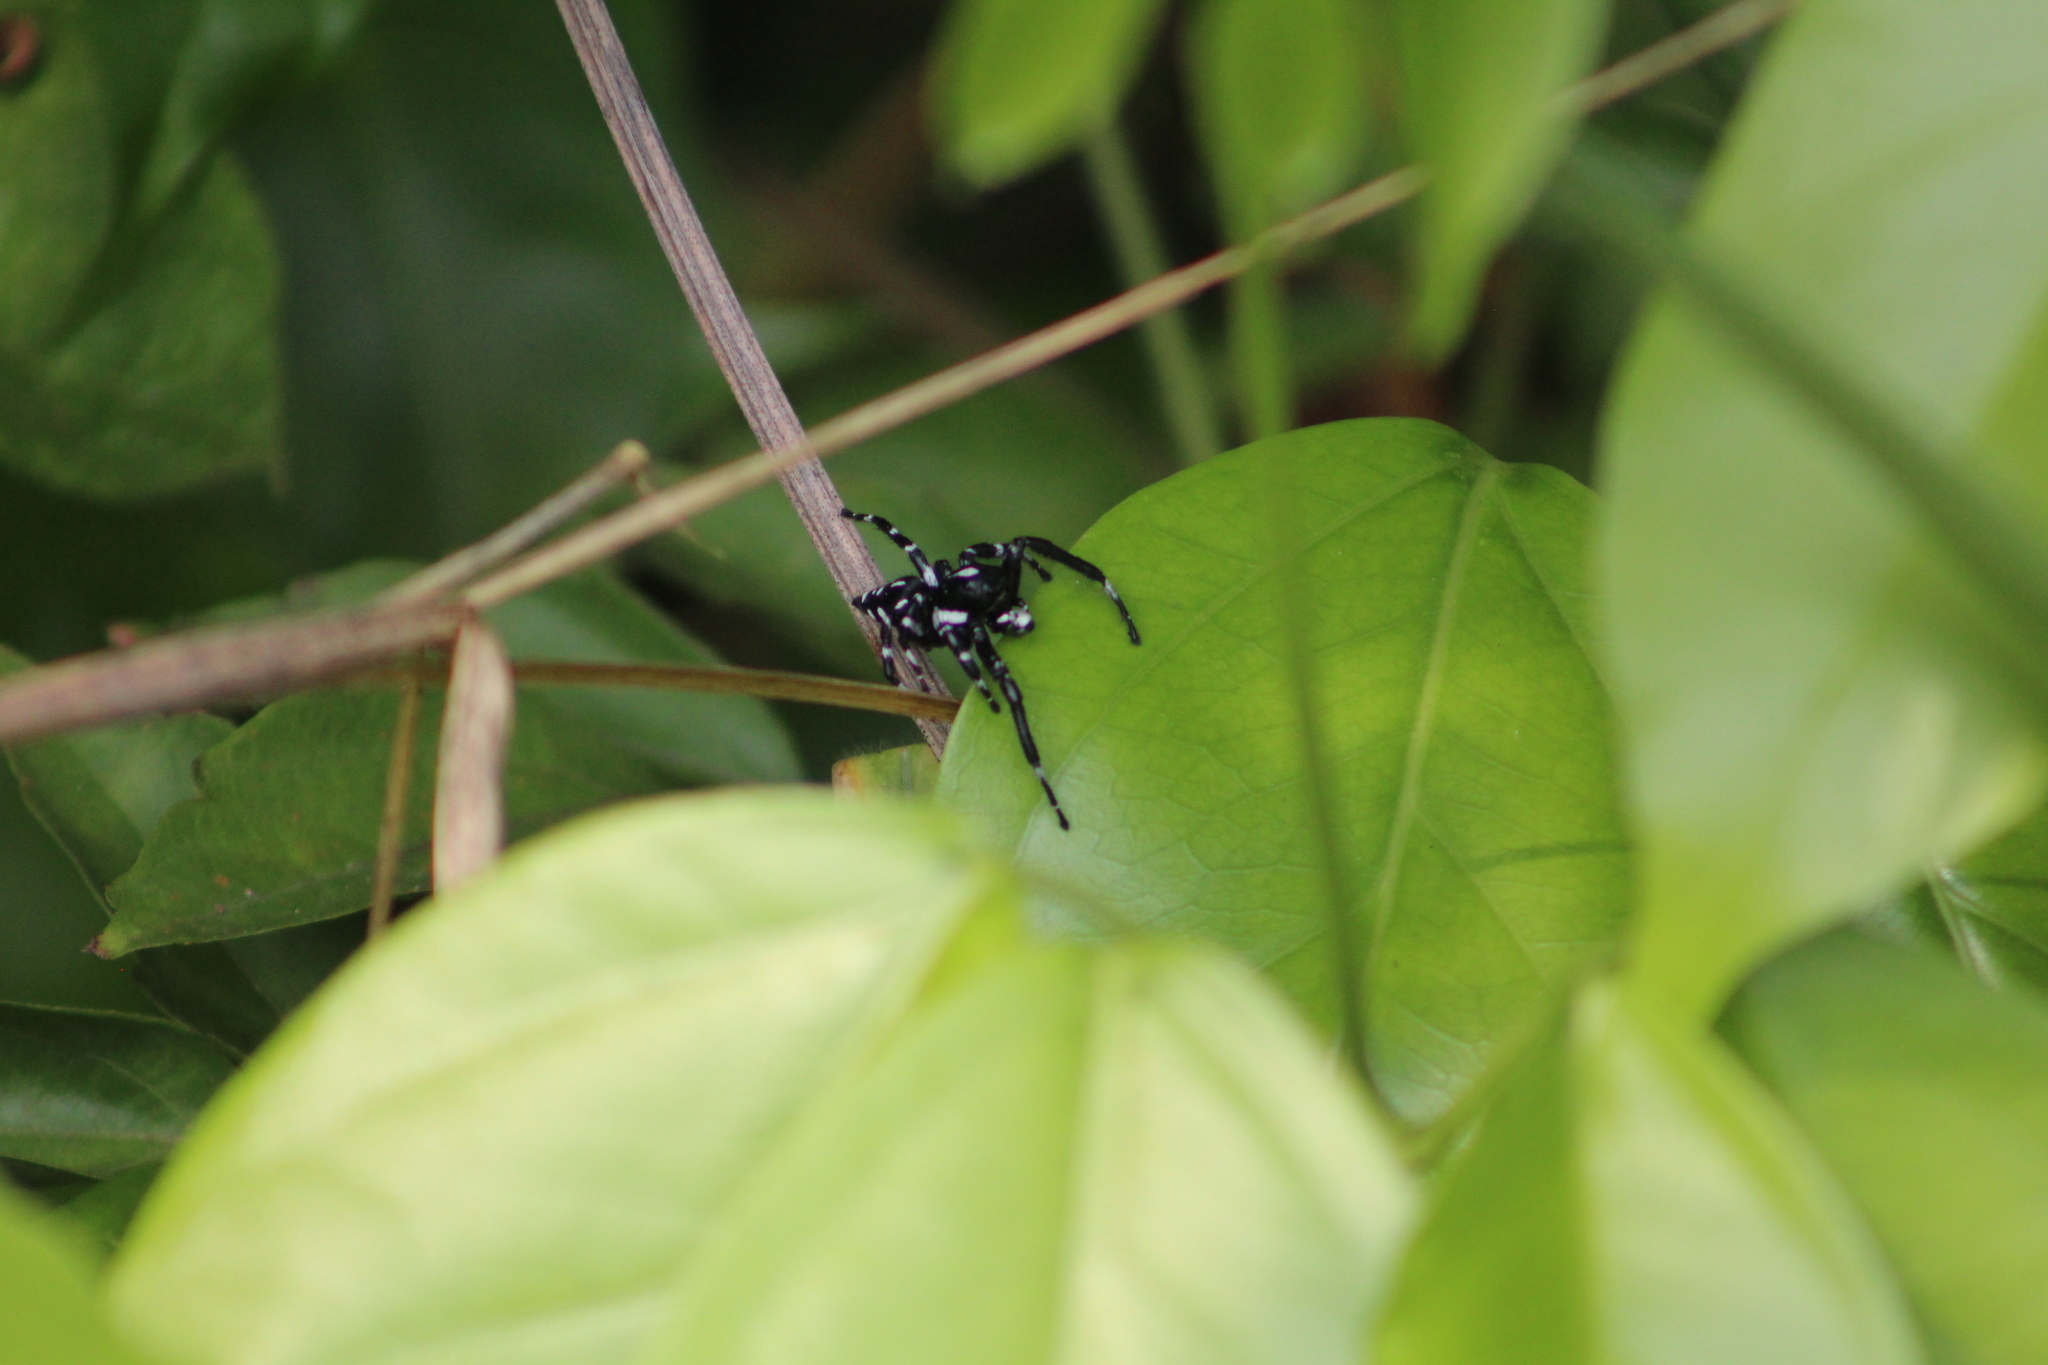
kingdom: Animalia
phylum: Arthropoda
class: Arachnida
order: Araneae
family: Salticidae
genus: Phiale
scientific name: Phiale guttata
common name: Jumping spiders
